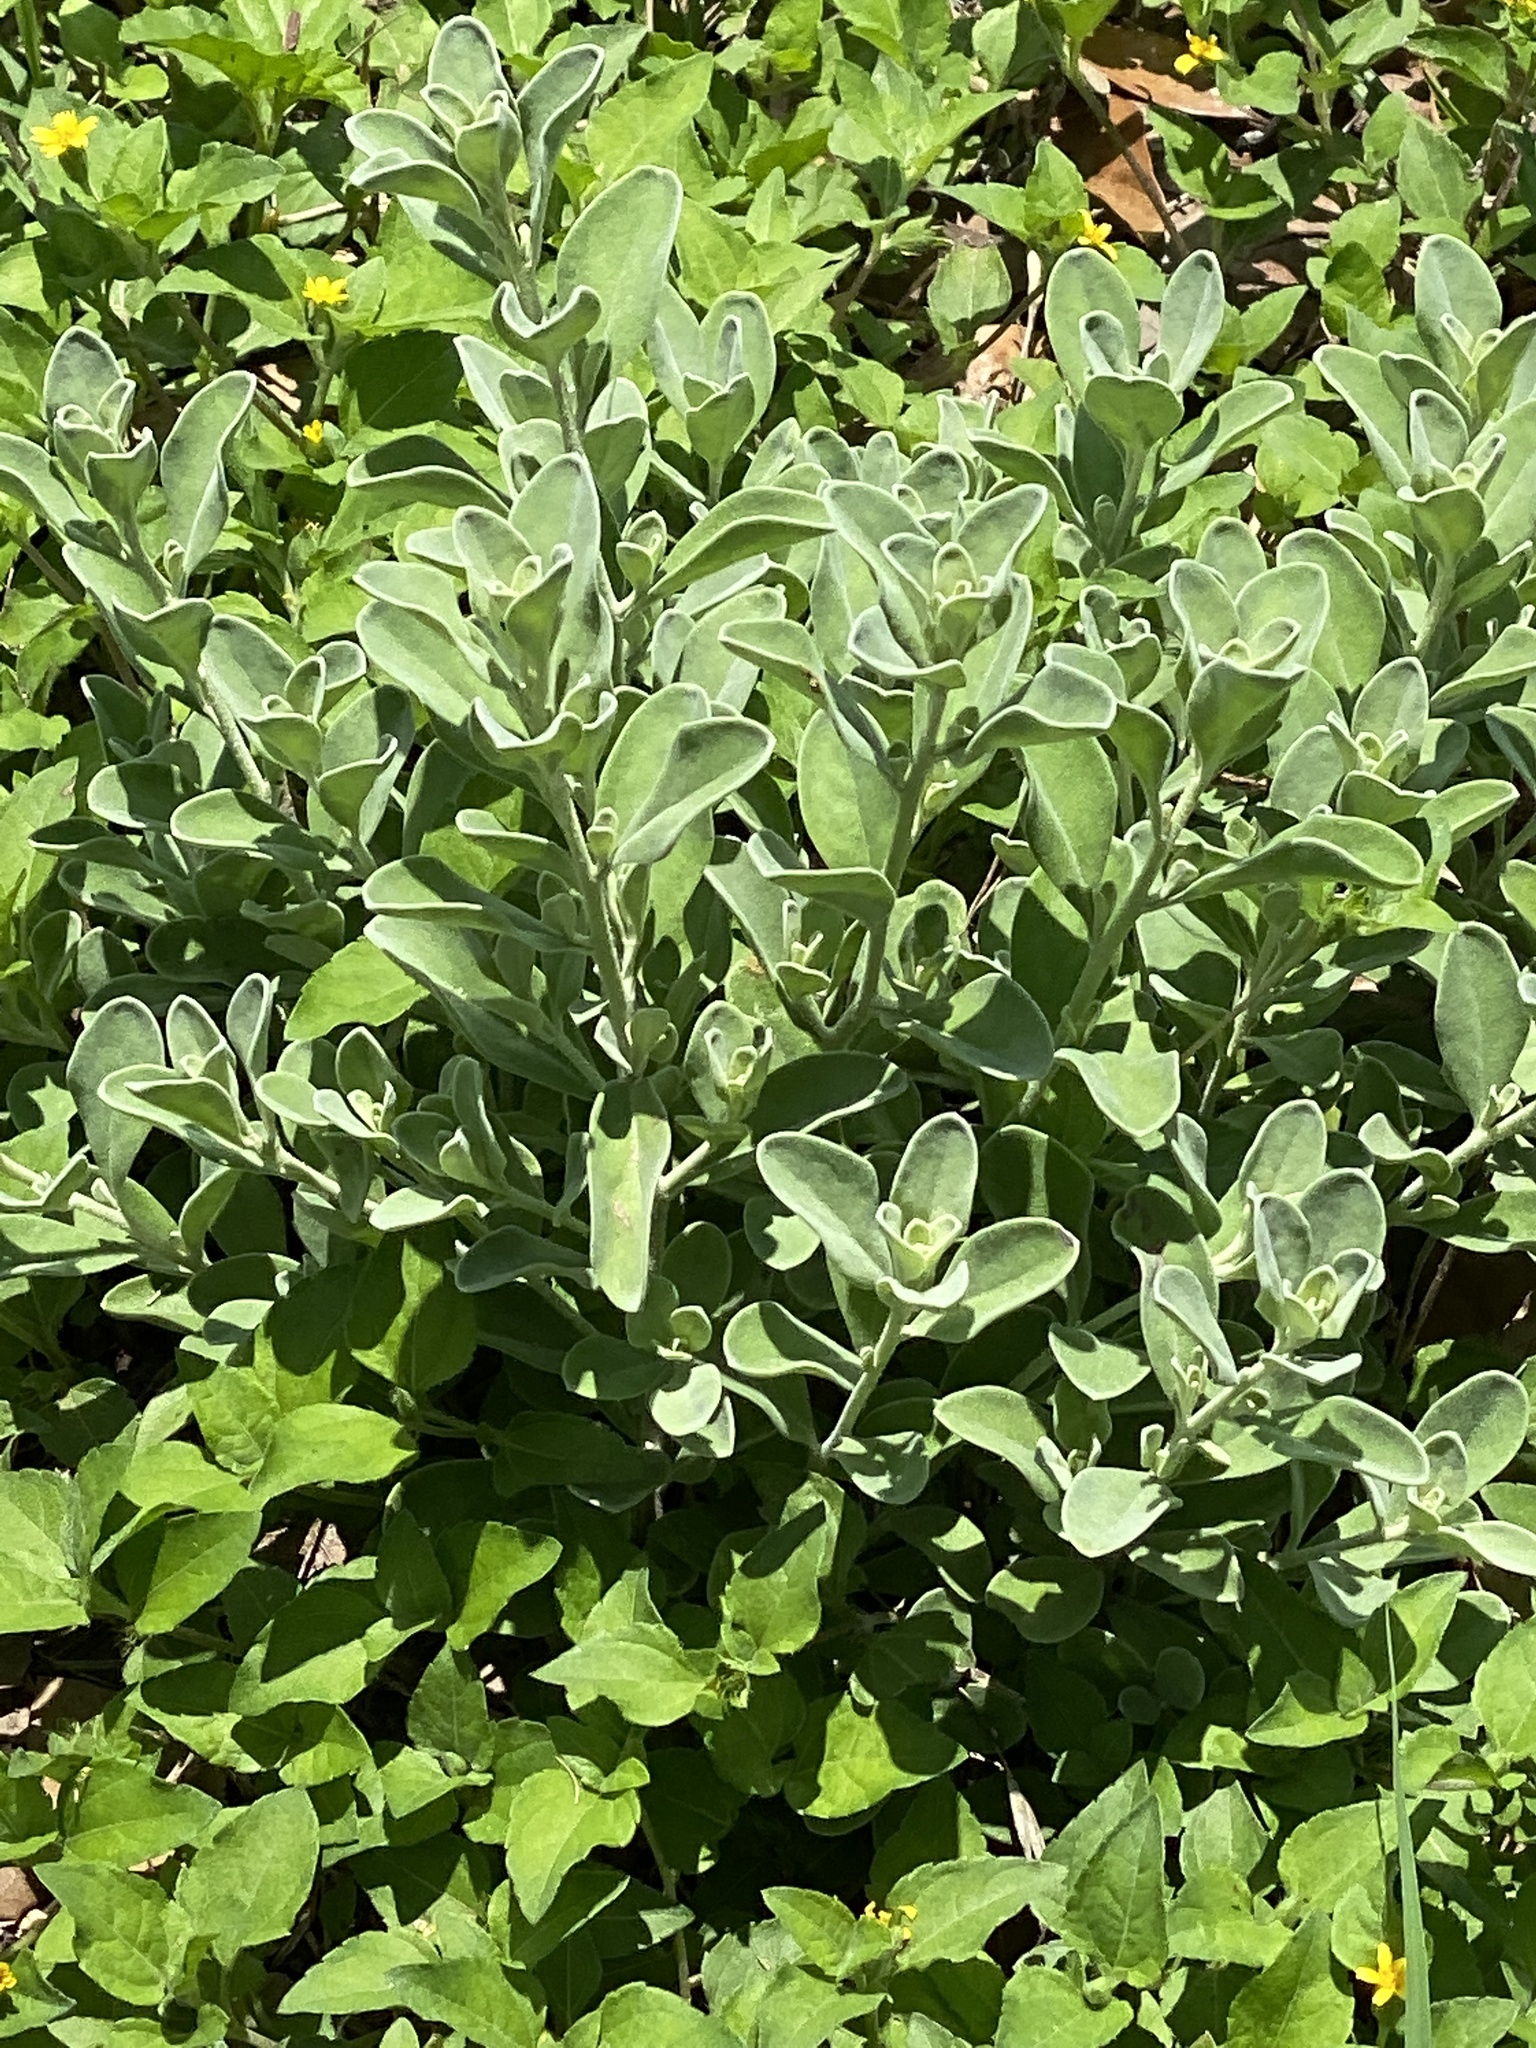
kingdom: Plantae
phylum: Tracheophyta
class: Magnoliopsida
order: Lamiales
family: Scrophulariaceae
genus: Leucophyllum
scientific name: Leucophyllum frutescens
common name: Texas silverleaf
